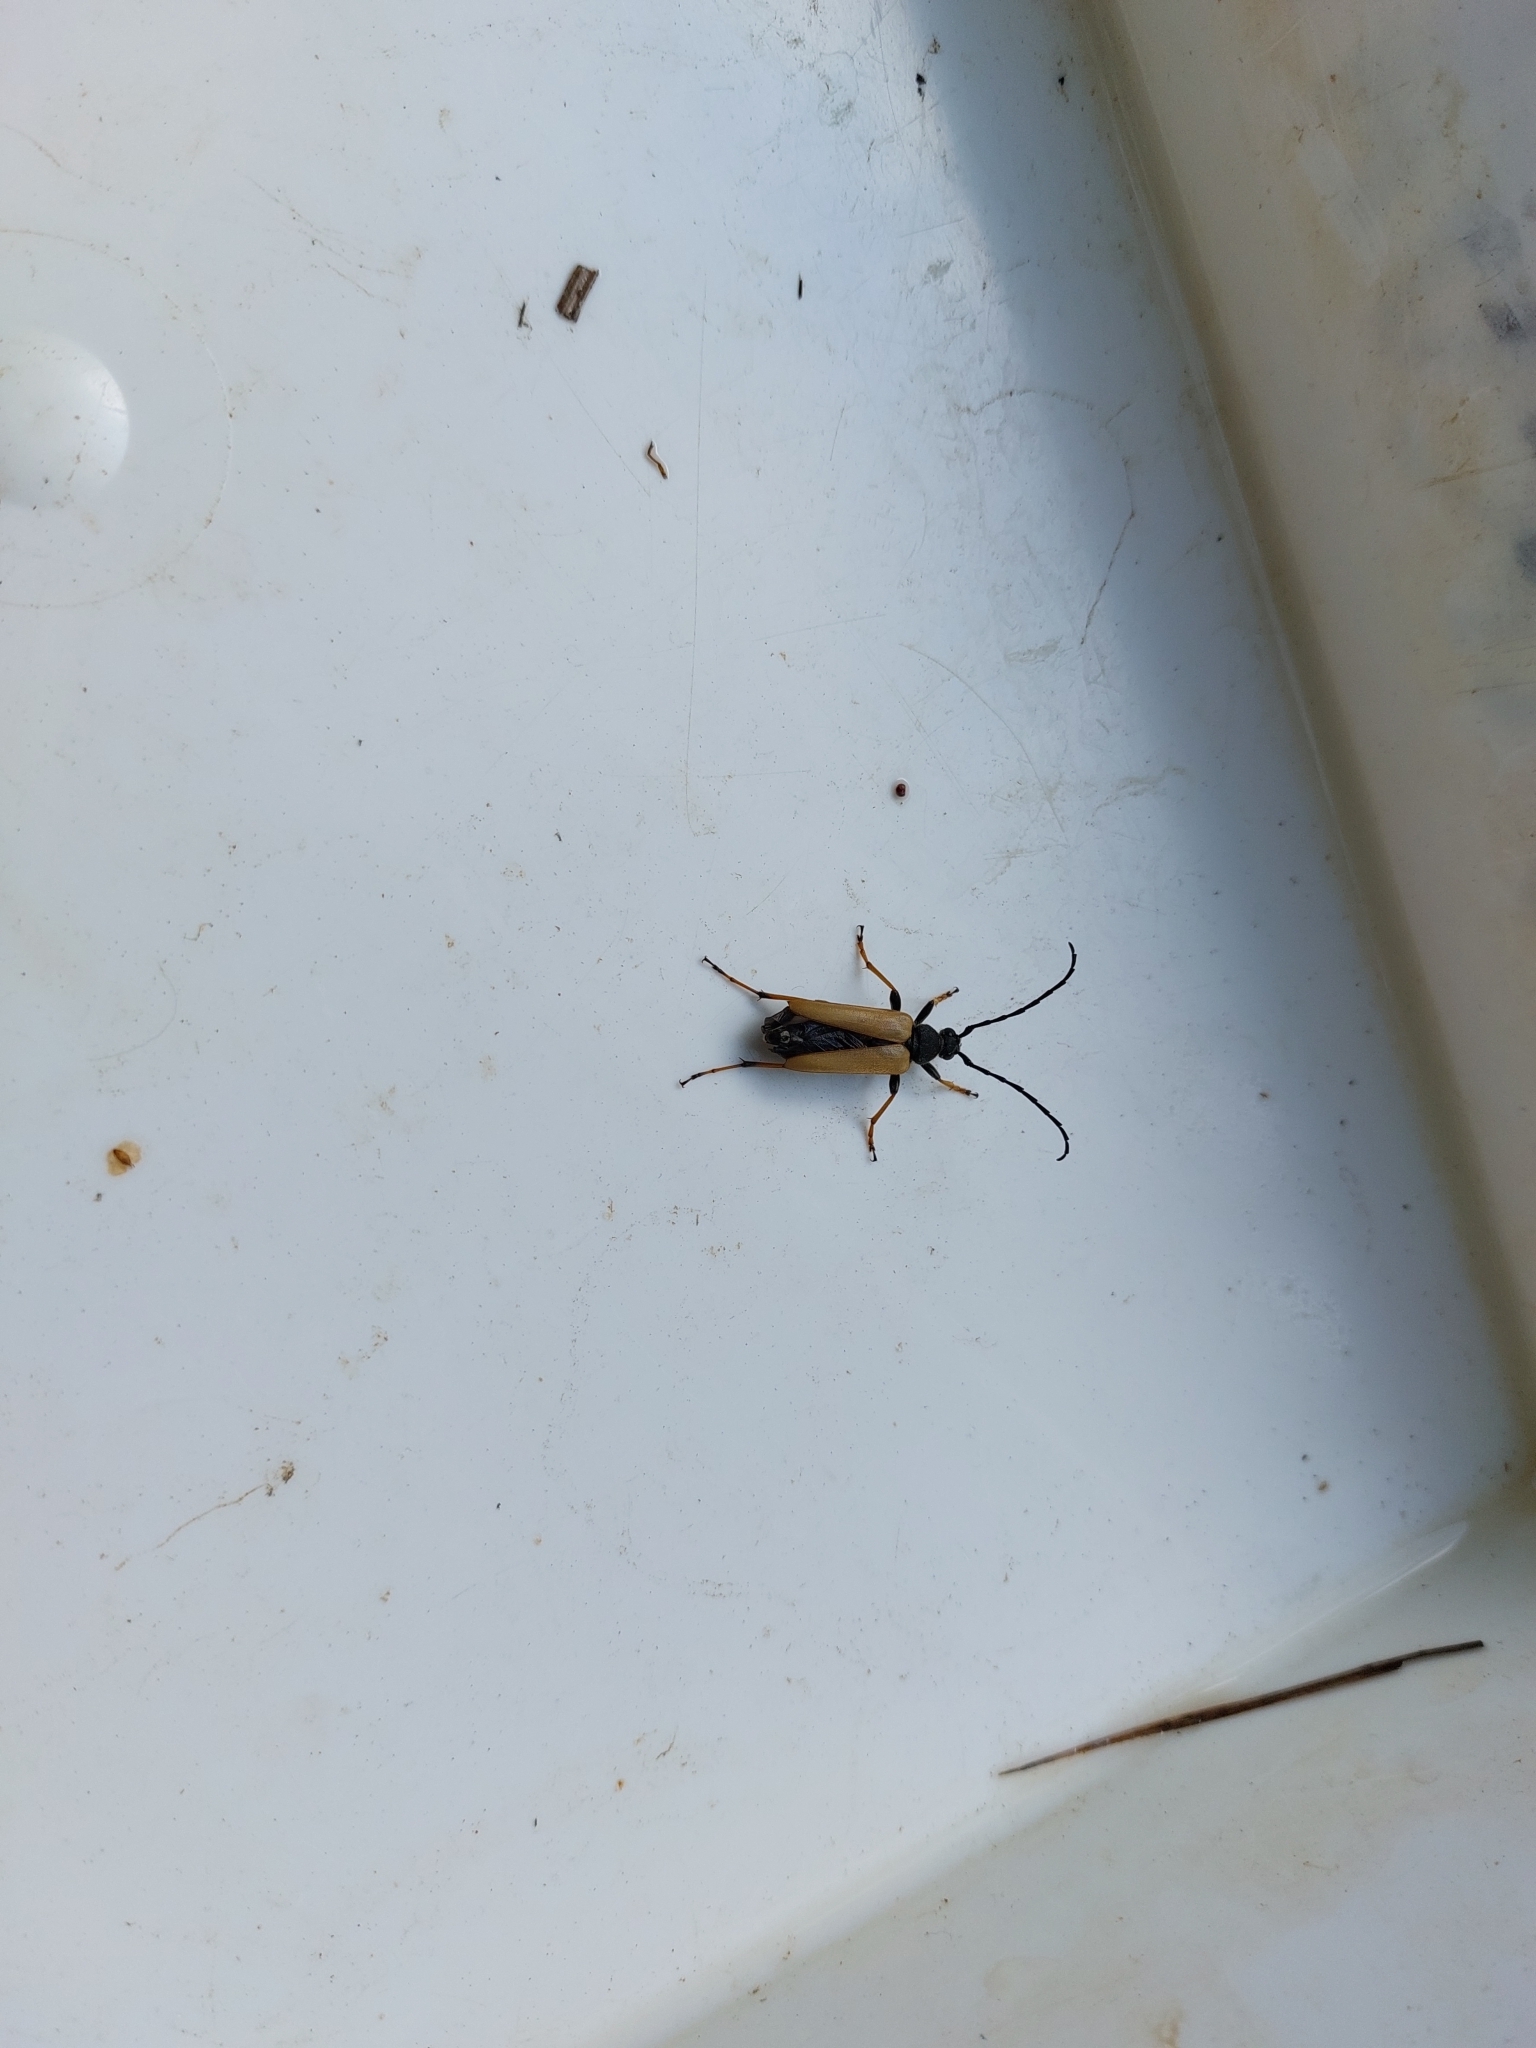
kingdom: Animalia
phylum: Arthropoda
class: Insecta
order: Coleoptera
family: Cerambycidae
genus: Stictoleptura
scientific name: Stictoleptura rubra
